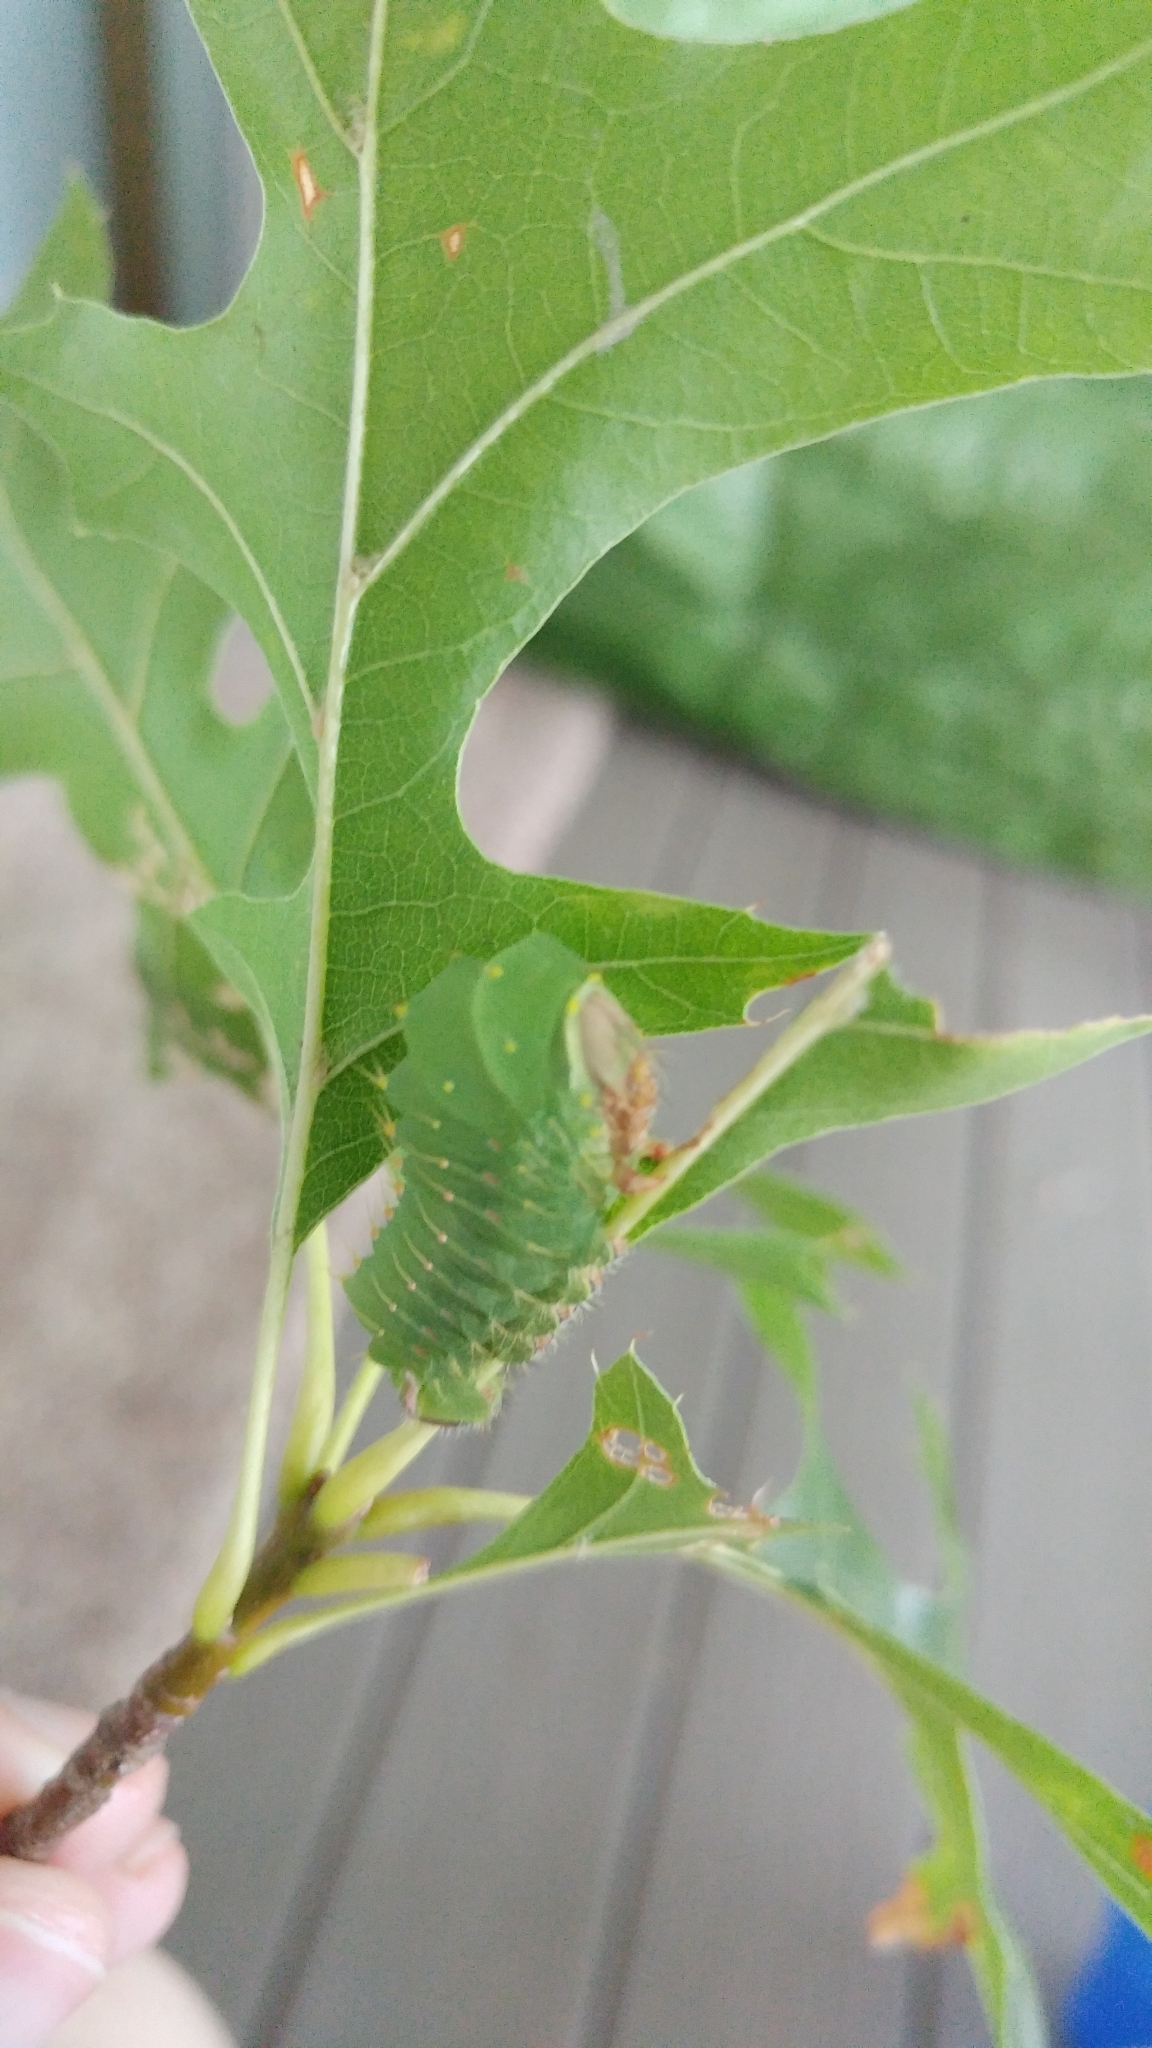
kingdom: Animalia
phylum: Arthropoda
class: Insecta
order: Lepidoptera
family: Saturniidae
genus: Antheraea
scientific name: Antheraea polyphemus
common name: Polyphemus moth
